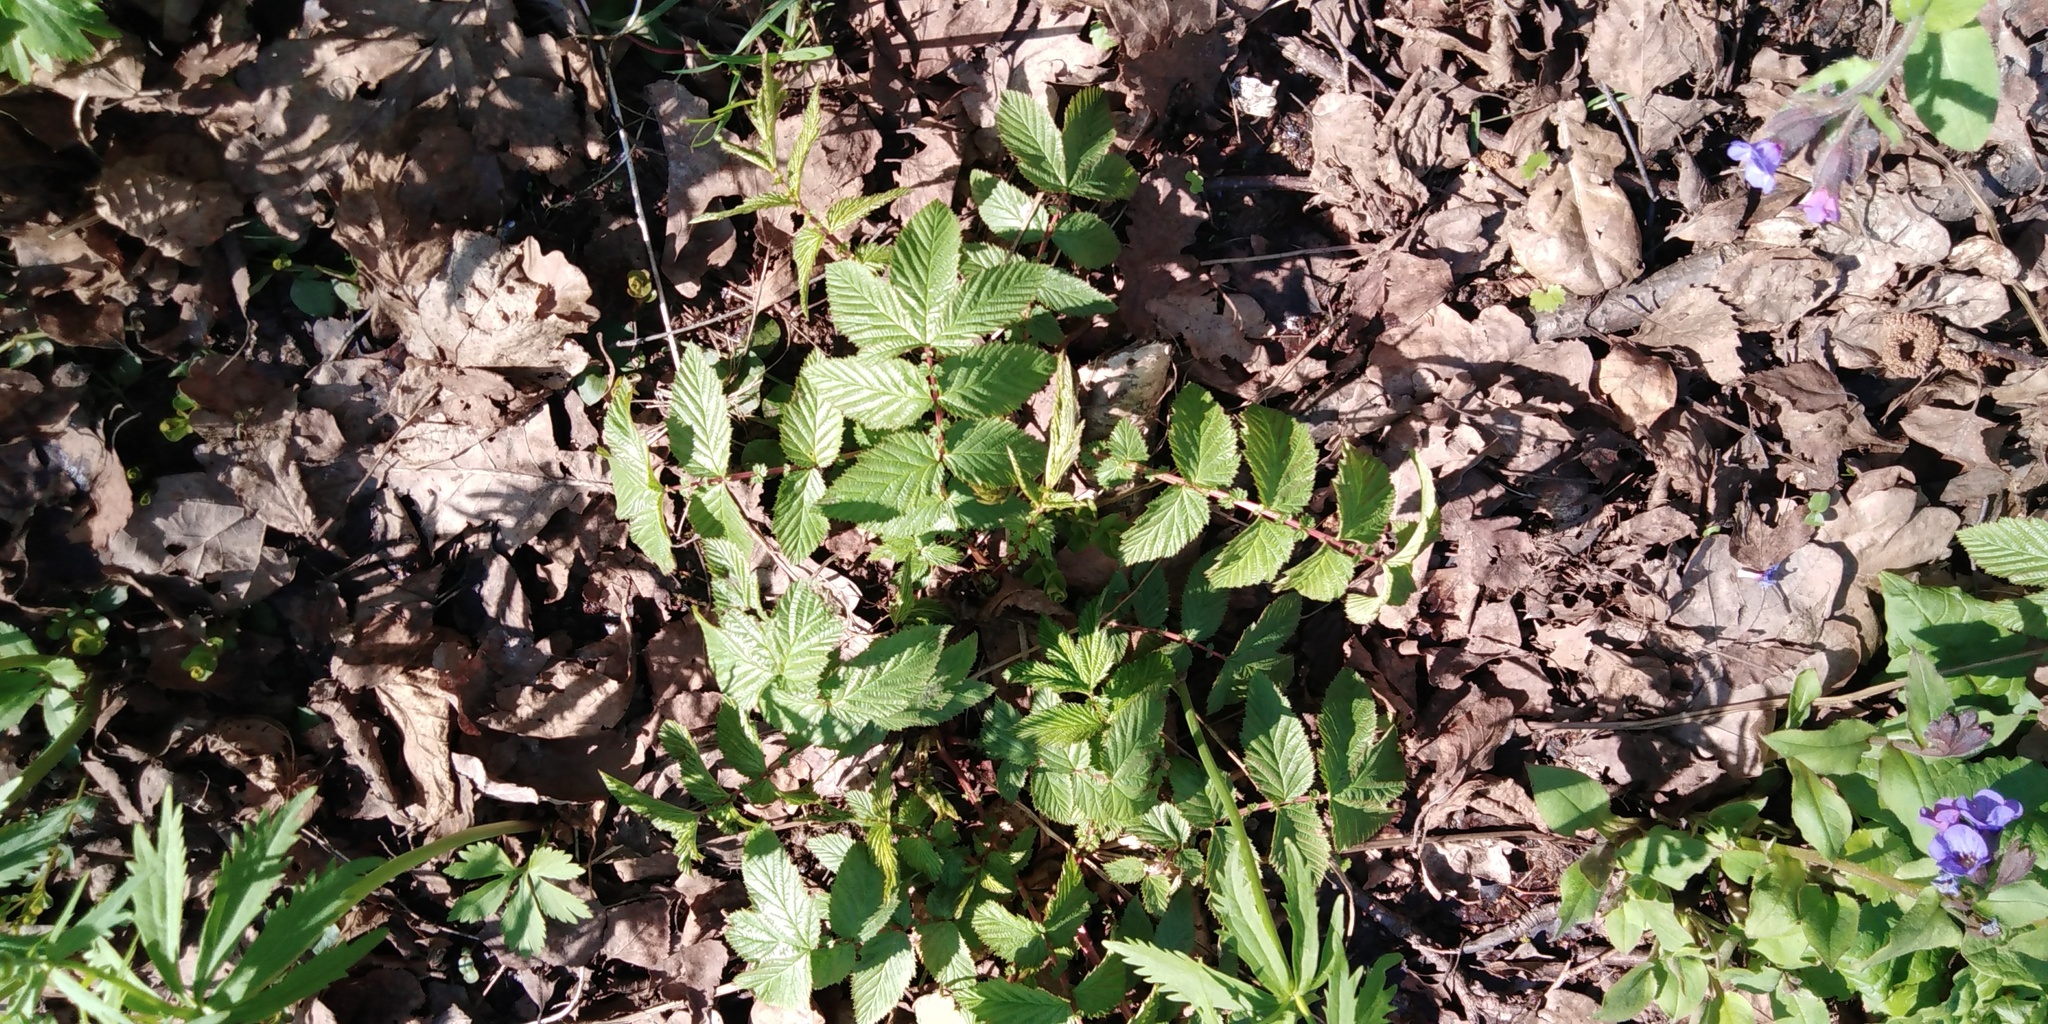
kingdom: Plantae
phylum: Tracheophyta
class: Magnoliopsida
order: Rosales
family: Rosaceae
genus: Filipendula
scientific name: Filipendula ulmaria
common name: Meadowsweet
